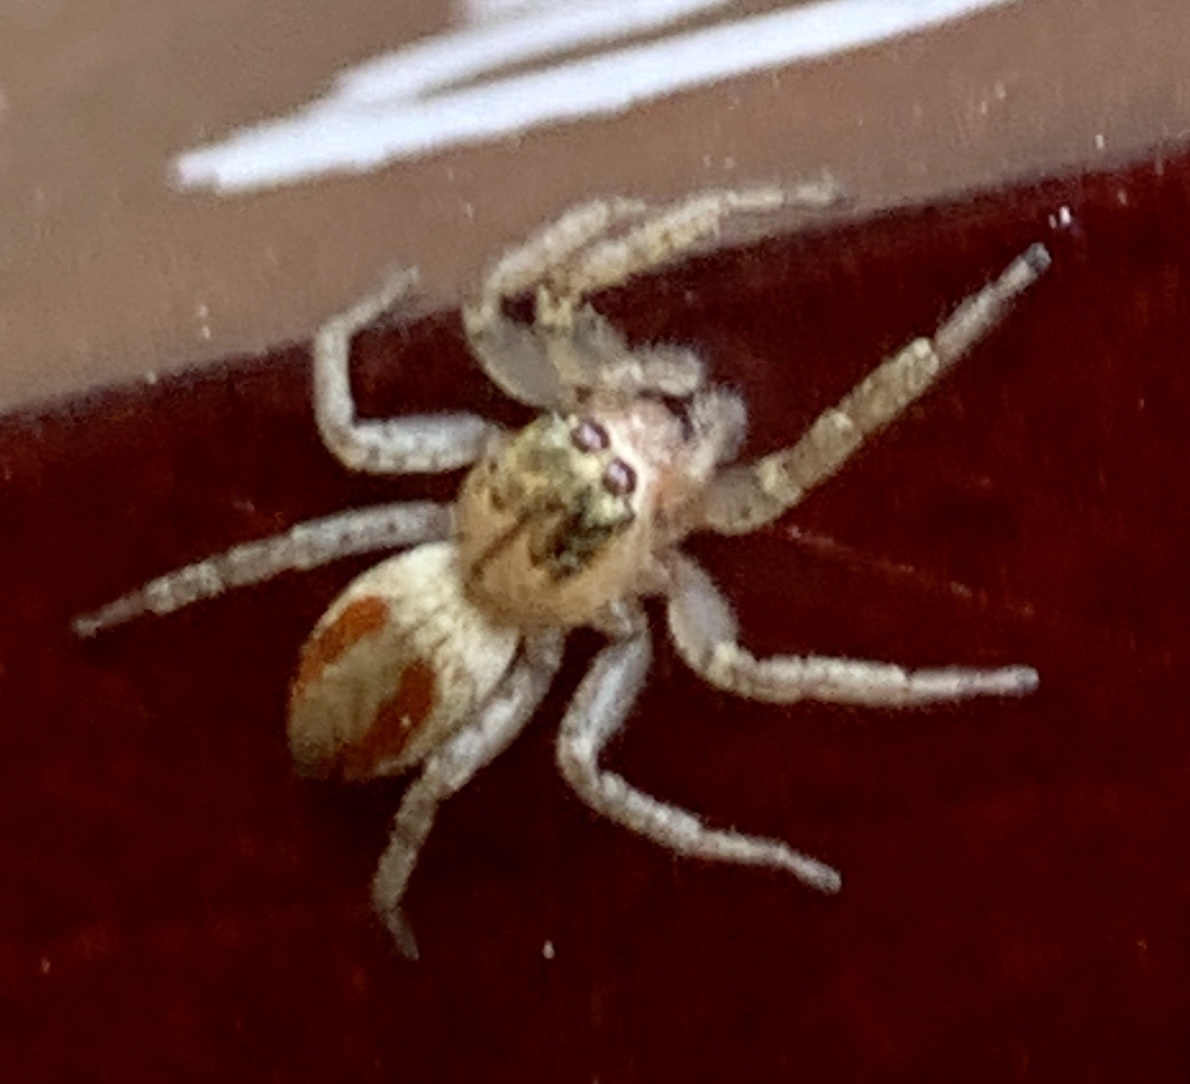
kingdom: Animalia
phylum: Arthropoda
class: Arachnida
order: Araneae
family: Salticidae
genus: Maevia
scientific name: Maevia inclemens
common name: Dimorphic jumper
